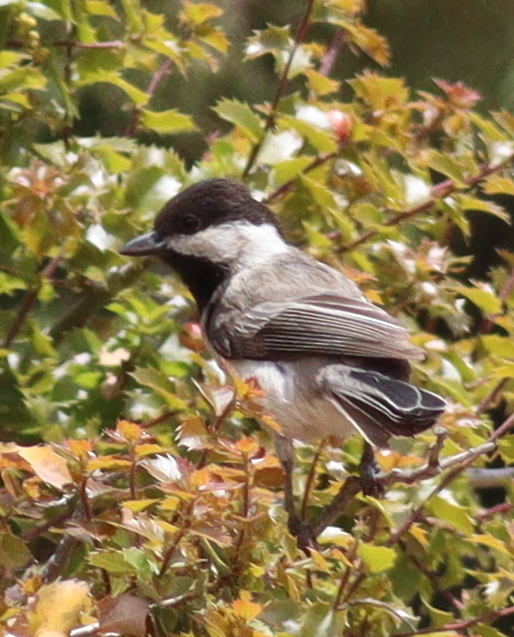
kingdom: Animalia
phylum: Chordata
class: Aves
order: Passeriformes
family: Paridae
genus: Poecile
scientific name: Poecile lugubris
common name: Sombre tit
